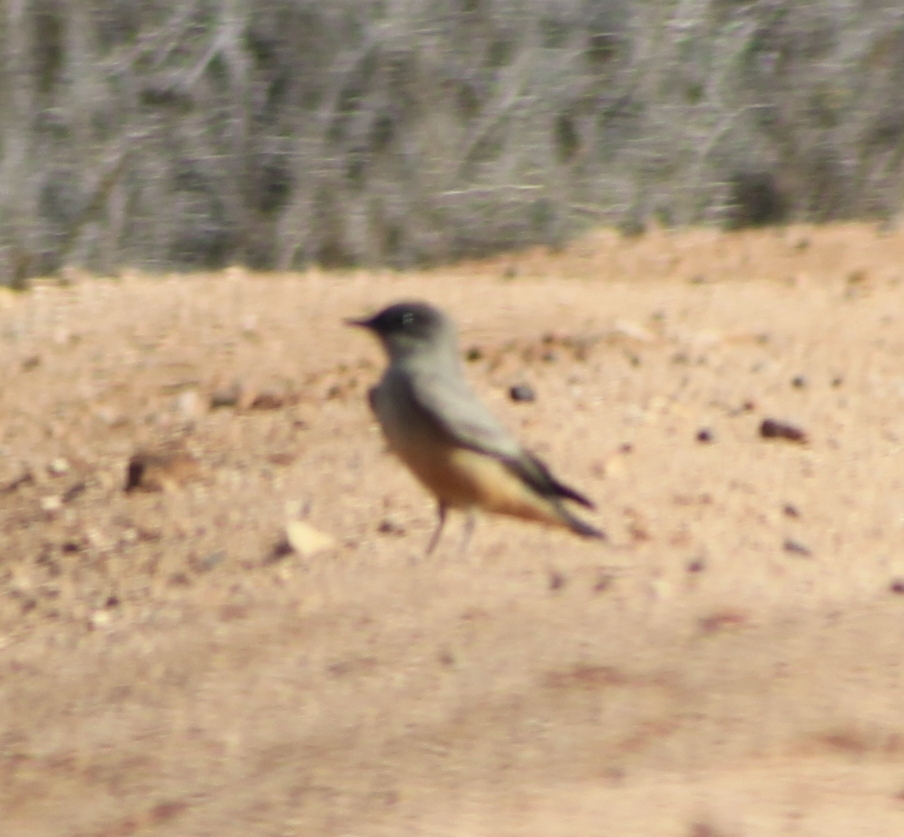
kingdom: Animalia
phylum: Chordata
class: Aves
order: Passeriformes
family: Tyrannidae
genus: Sayornis
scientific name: Sayornis saya
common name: Say's phoebe
